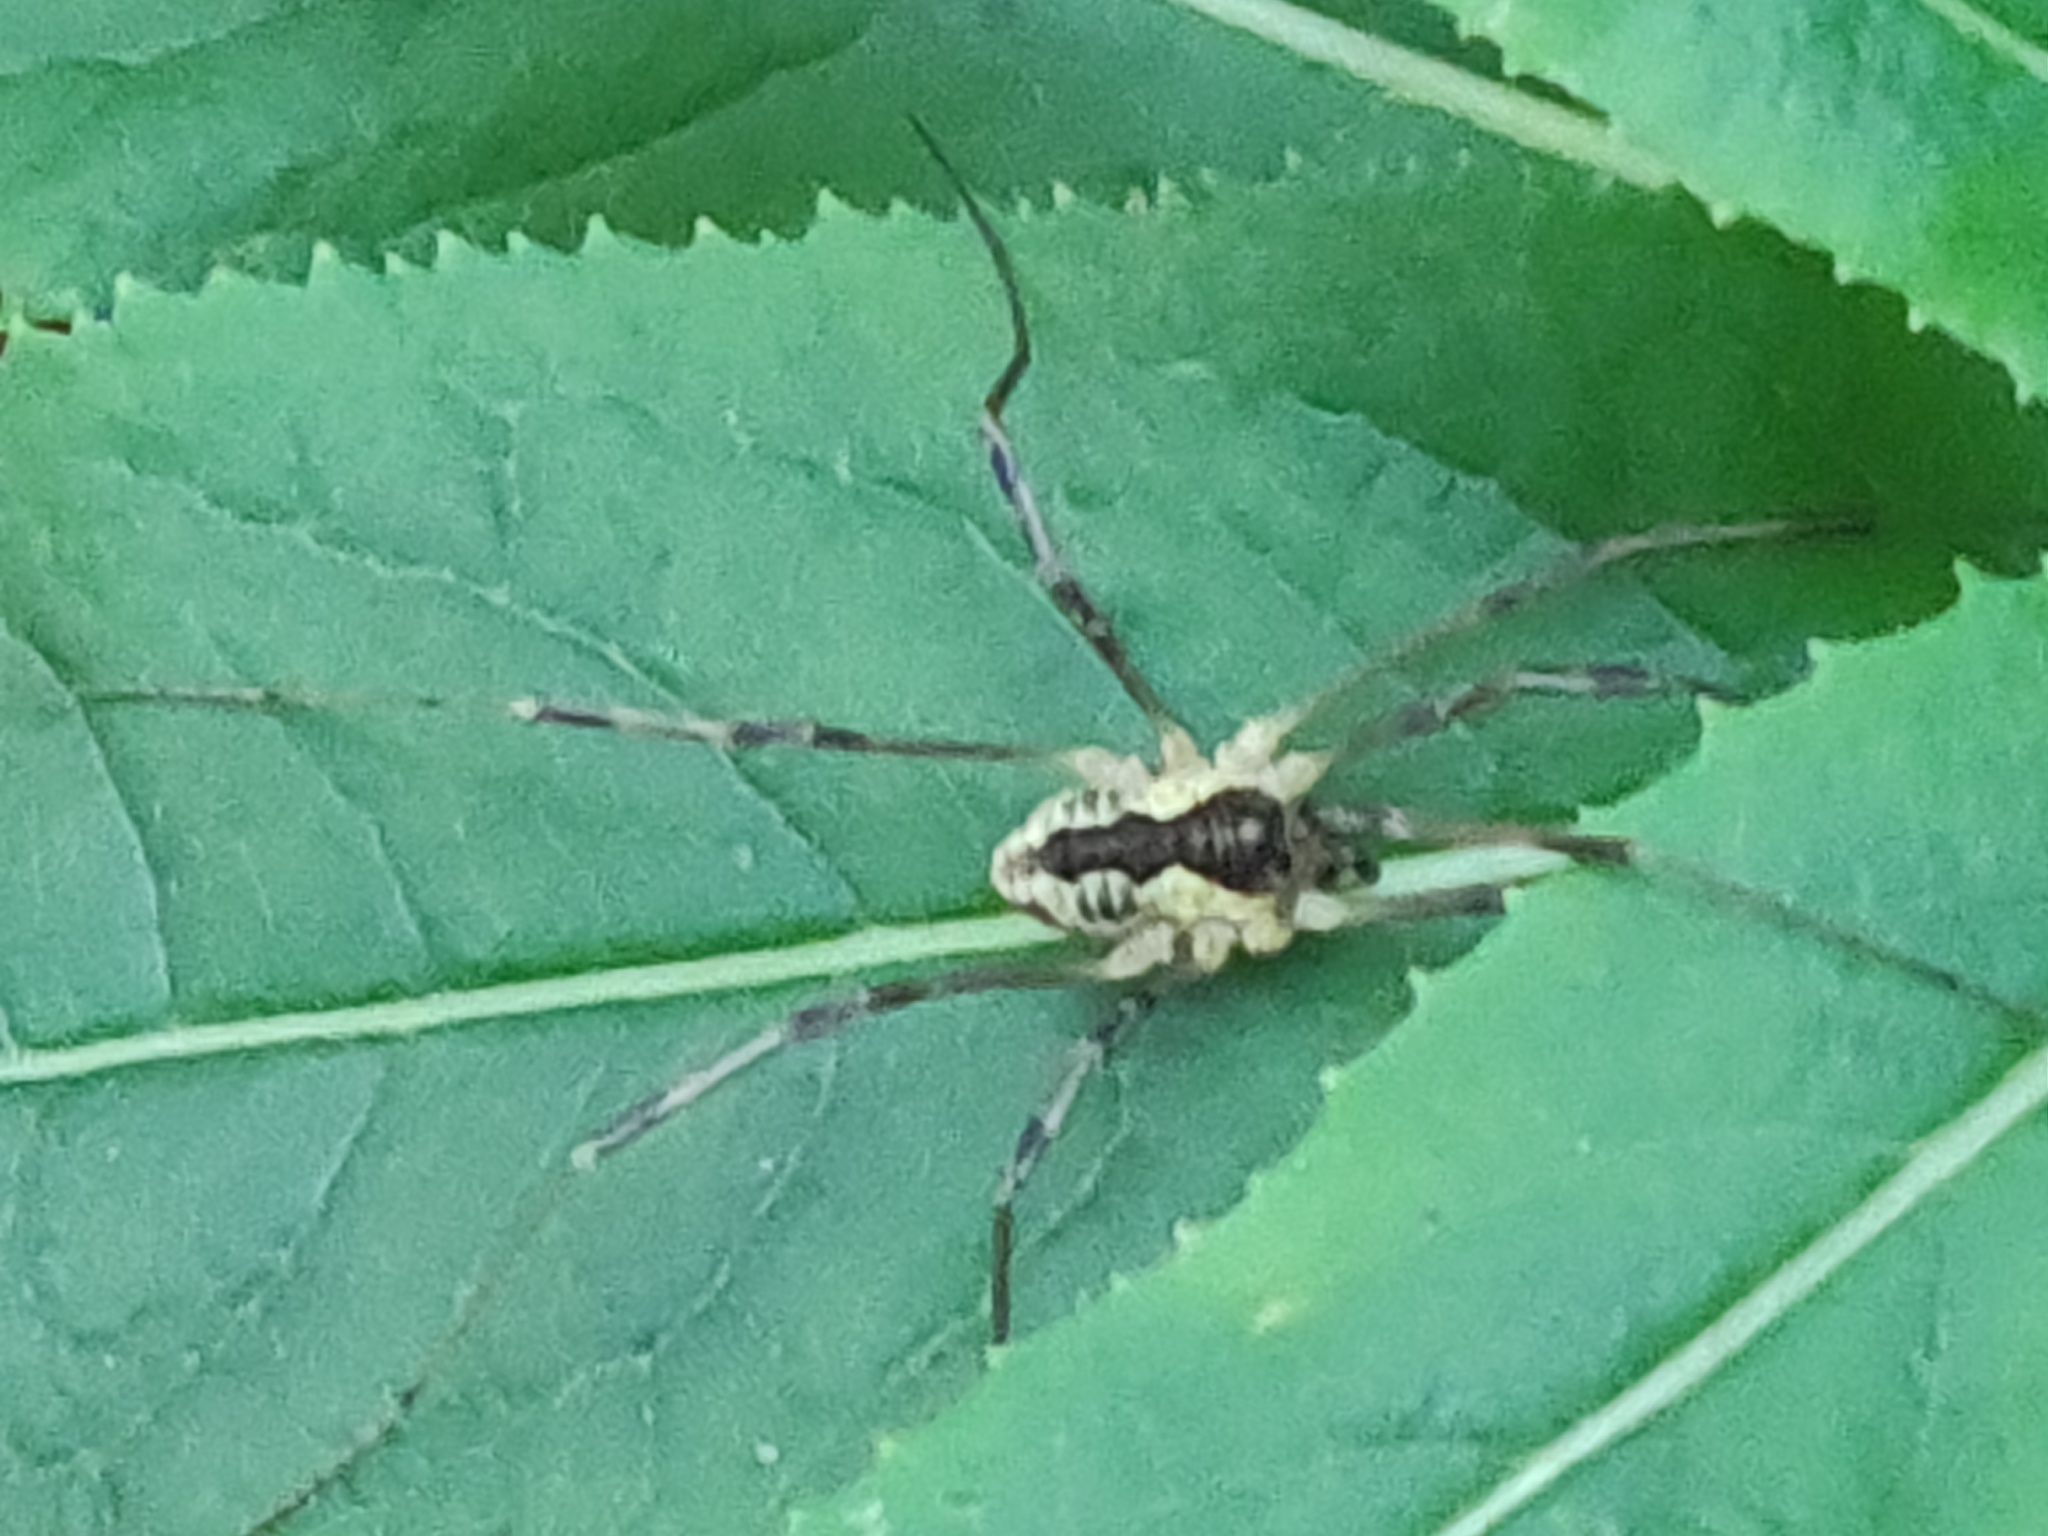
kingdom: Animalia
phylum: Arthropoda
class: Arachnida
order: Opiliones
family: Phalangiidae
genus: Mitopus
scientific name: Mitopus morio
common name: Saddleback harvestman
